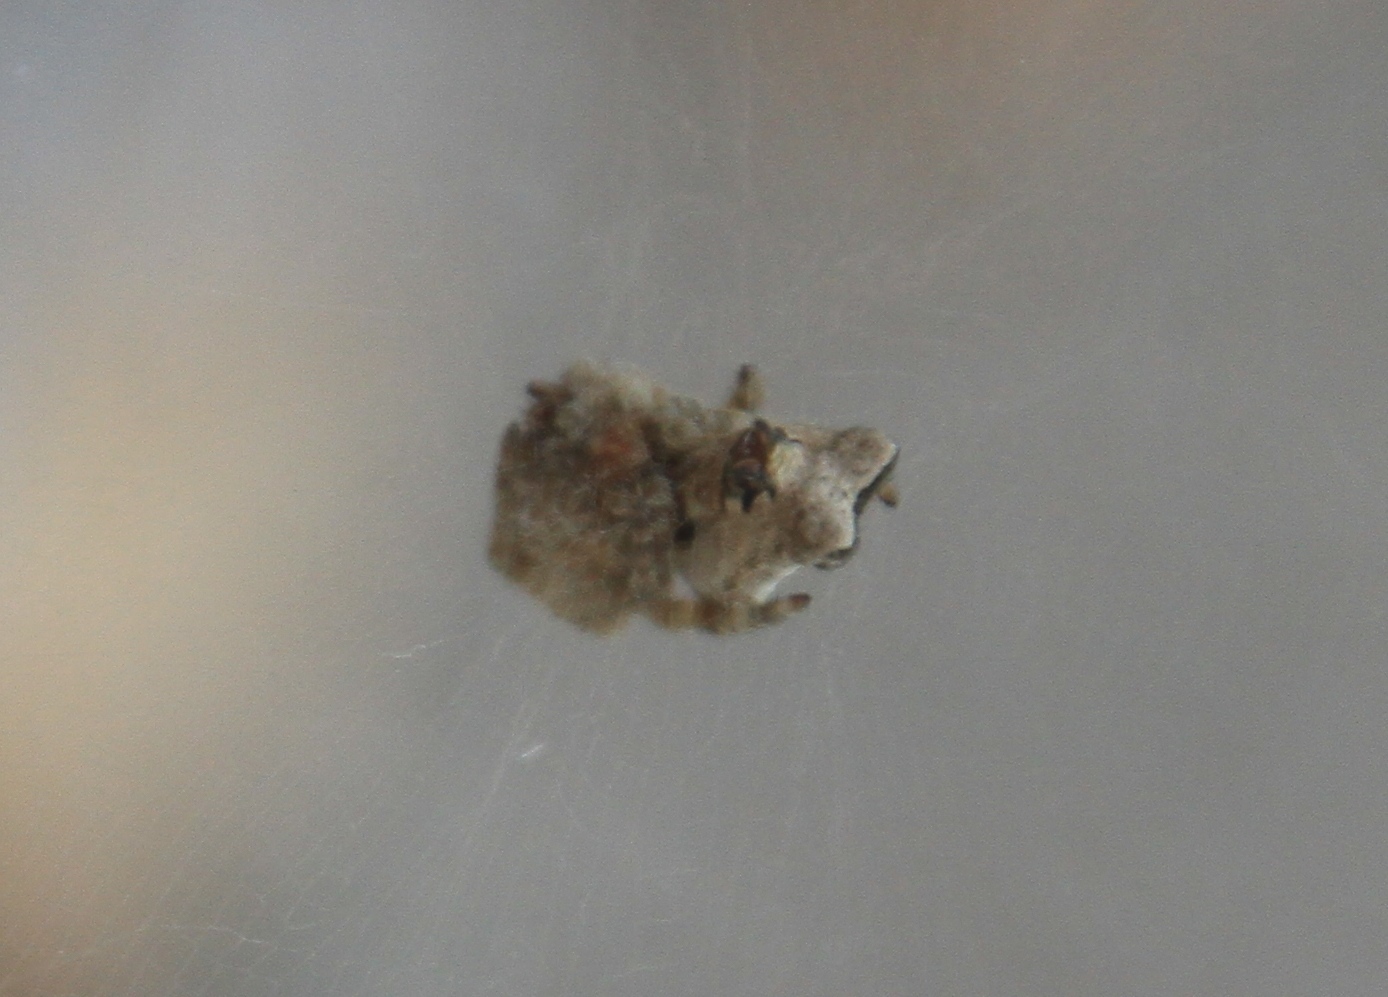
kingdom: Animalia
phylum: Arthropoda
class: Arachnida
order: Araneae
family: Araneidae
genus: Cyrtophora
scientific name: Cyrtophora citricola
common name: Orb weavers
